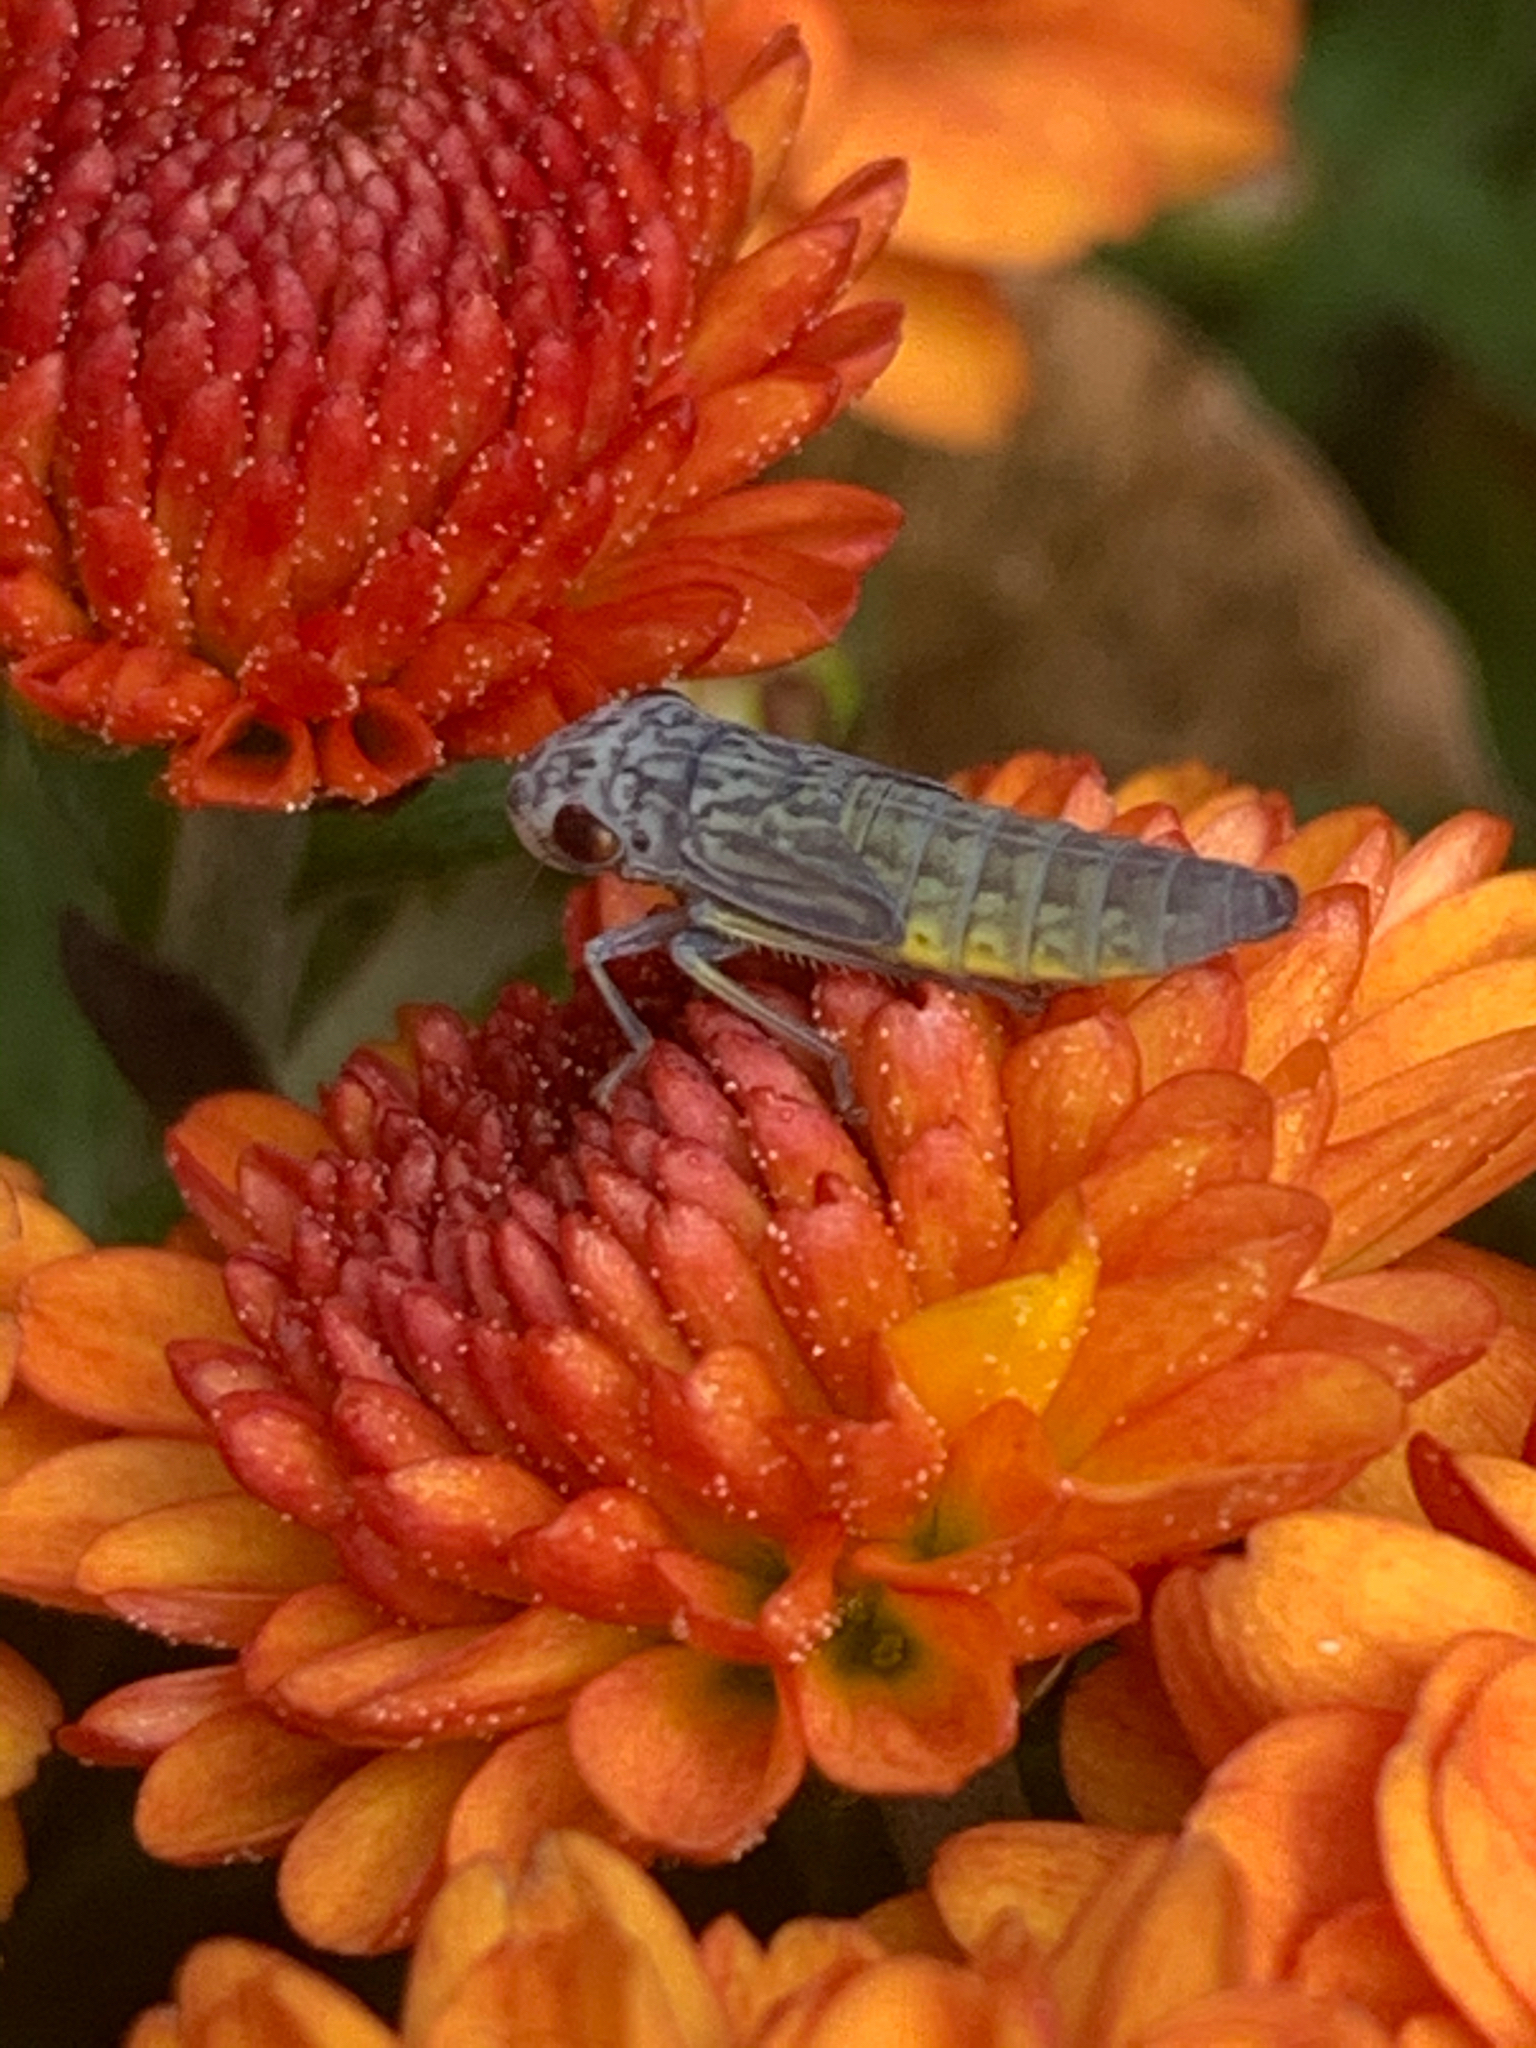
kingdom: Animalia
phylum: Arthropoda
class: Insecta
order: Hemiptera
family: Cicadellidae
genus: Oncometopia
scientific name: Oncometopia orbona
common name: Broad-headed sharpshooter
